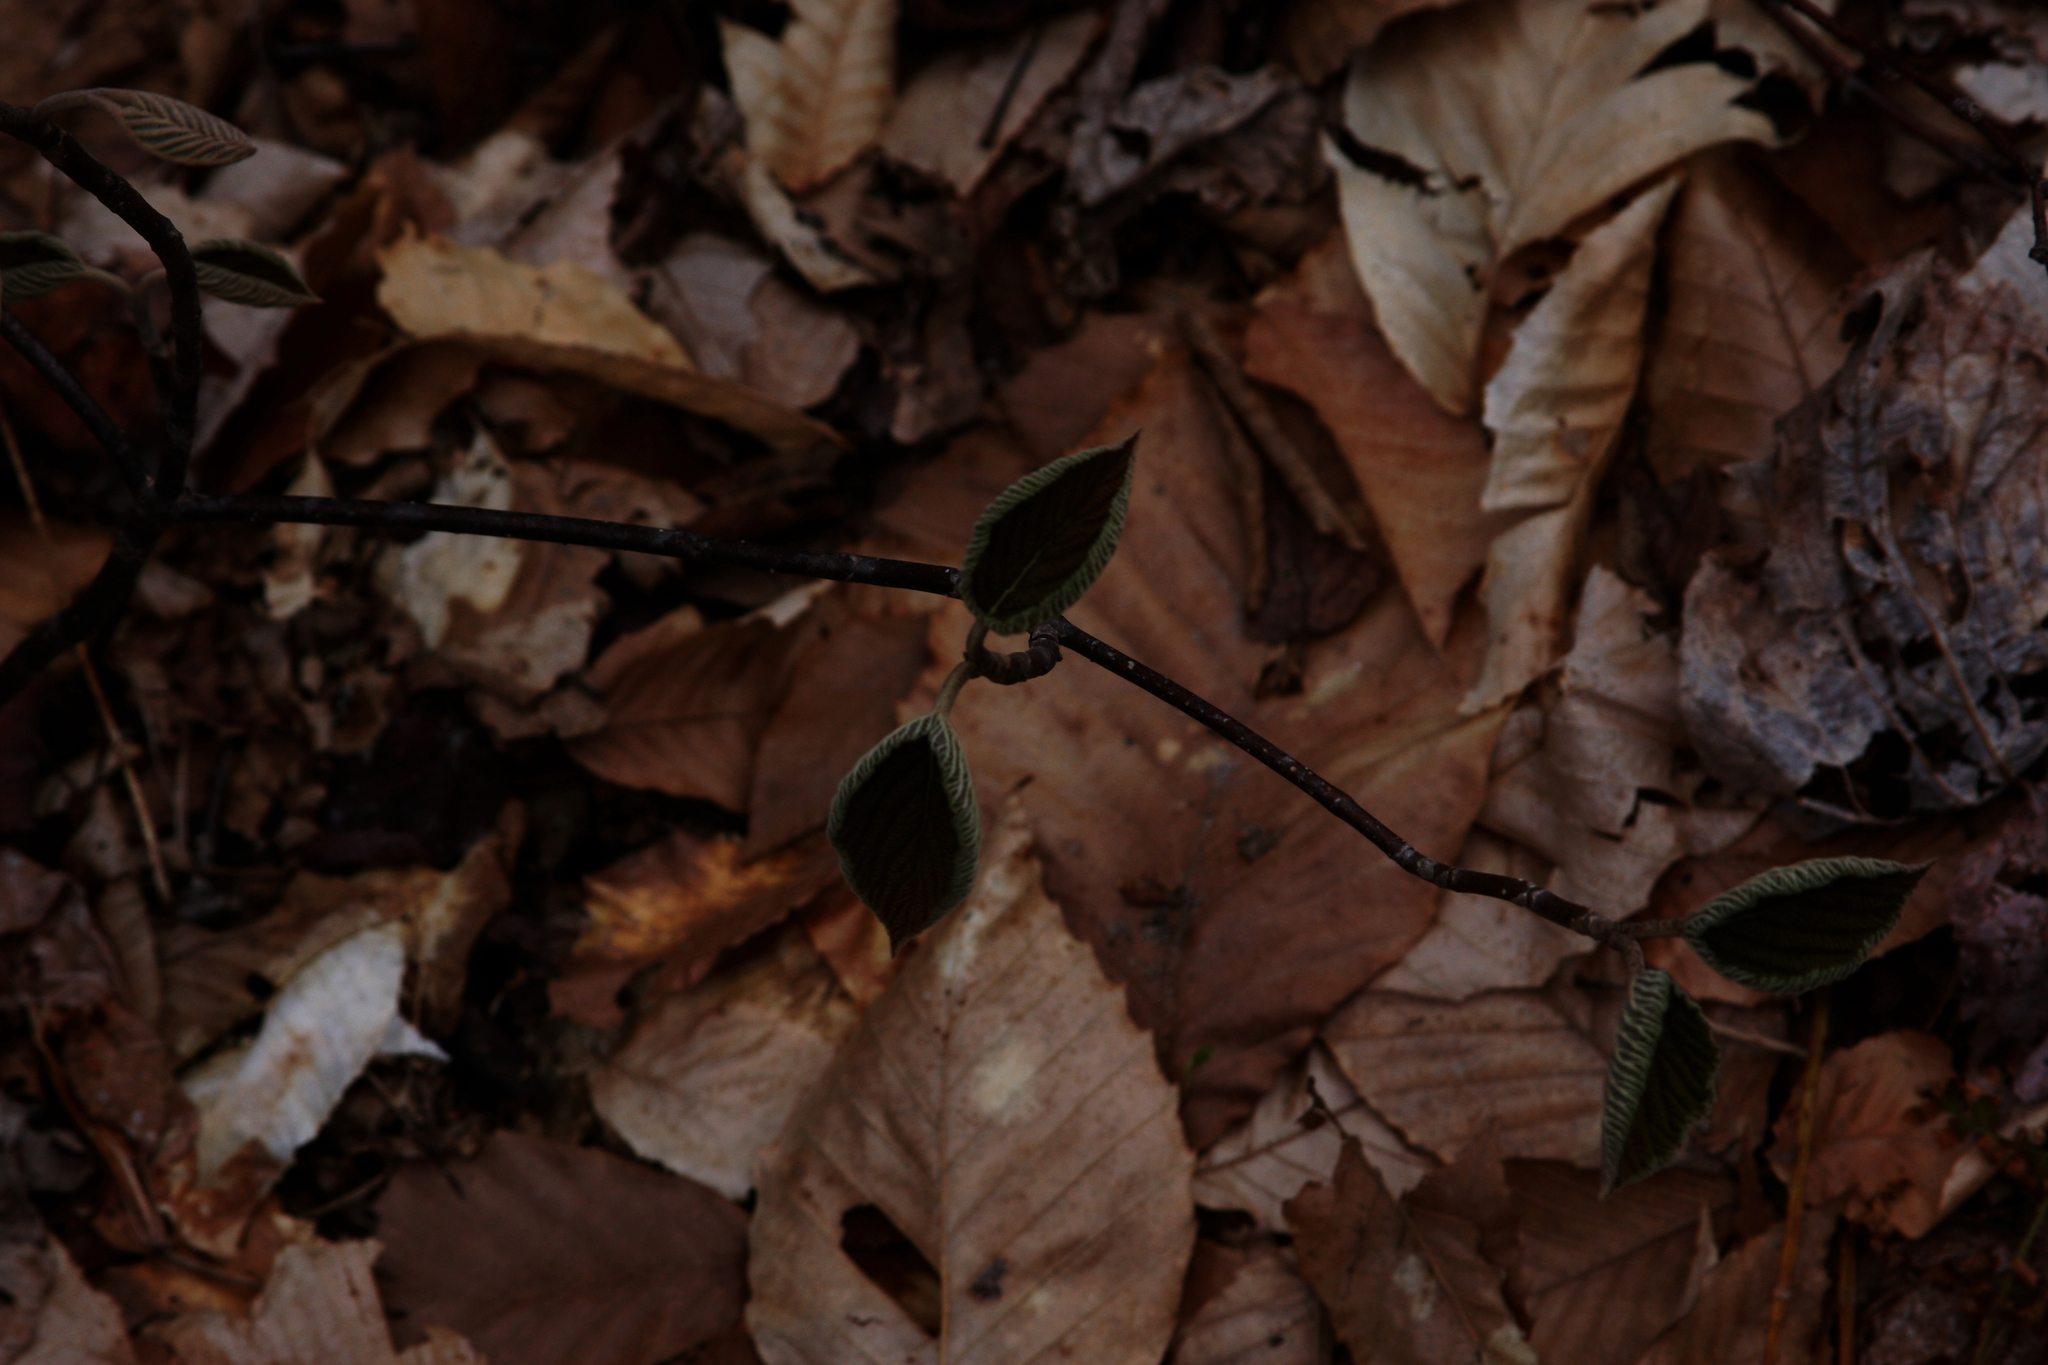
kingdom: Plantae
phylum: Tracheophyta
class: Magnoliopsida
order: Dipsacales
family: Viburnaceae
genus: Viburnum
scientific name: Viburnum lantanoides
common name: Hobblebush
